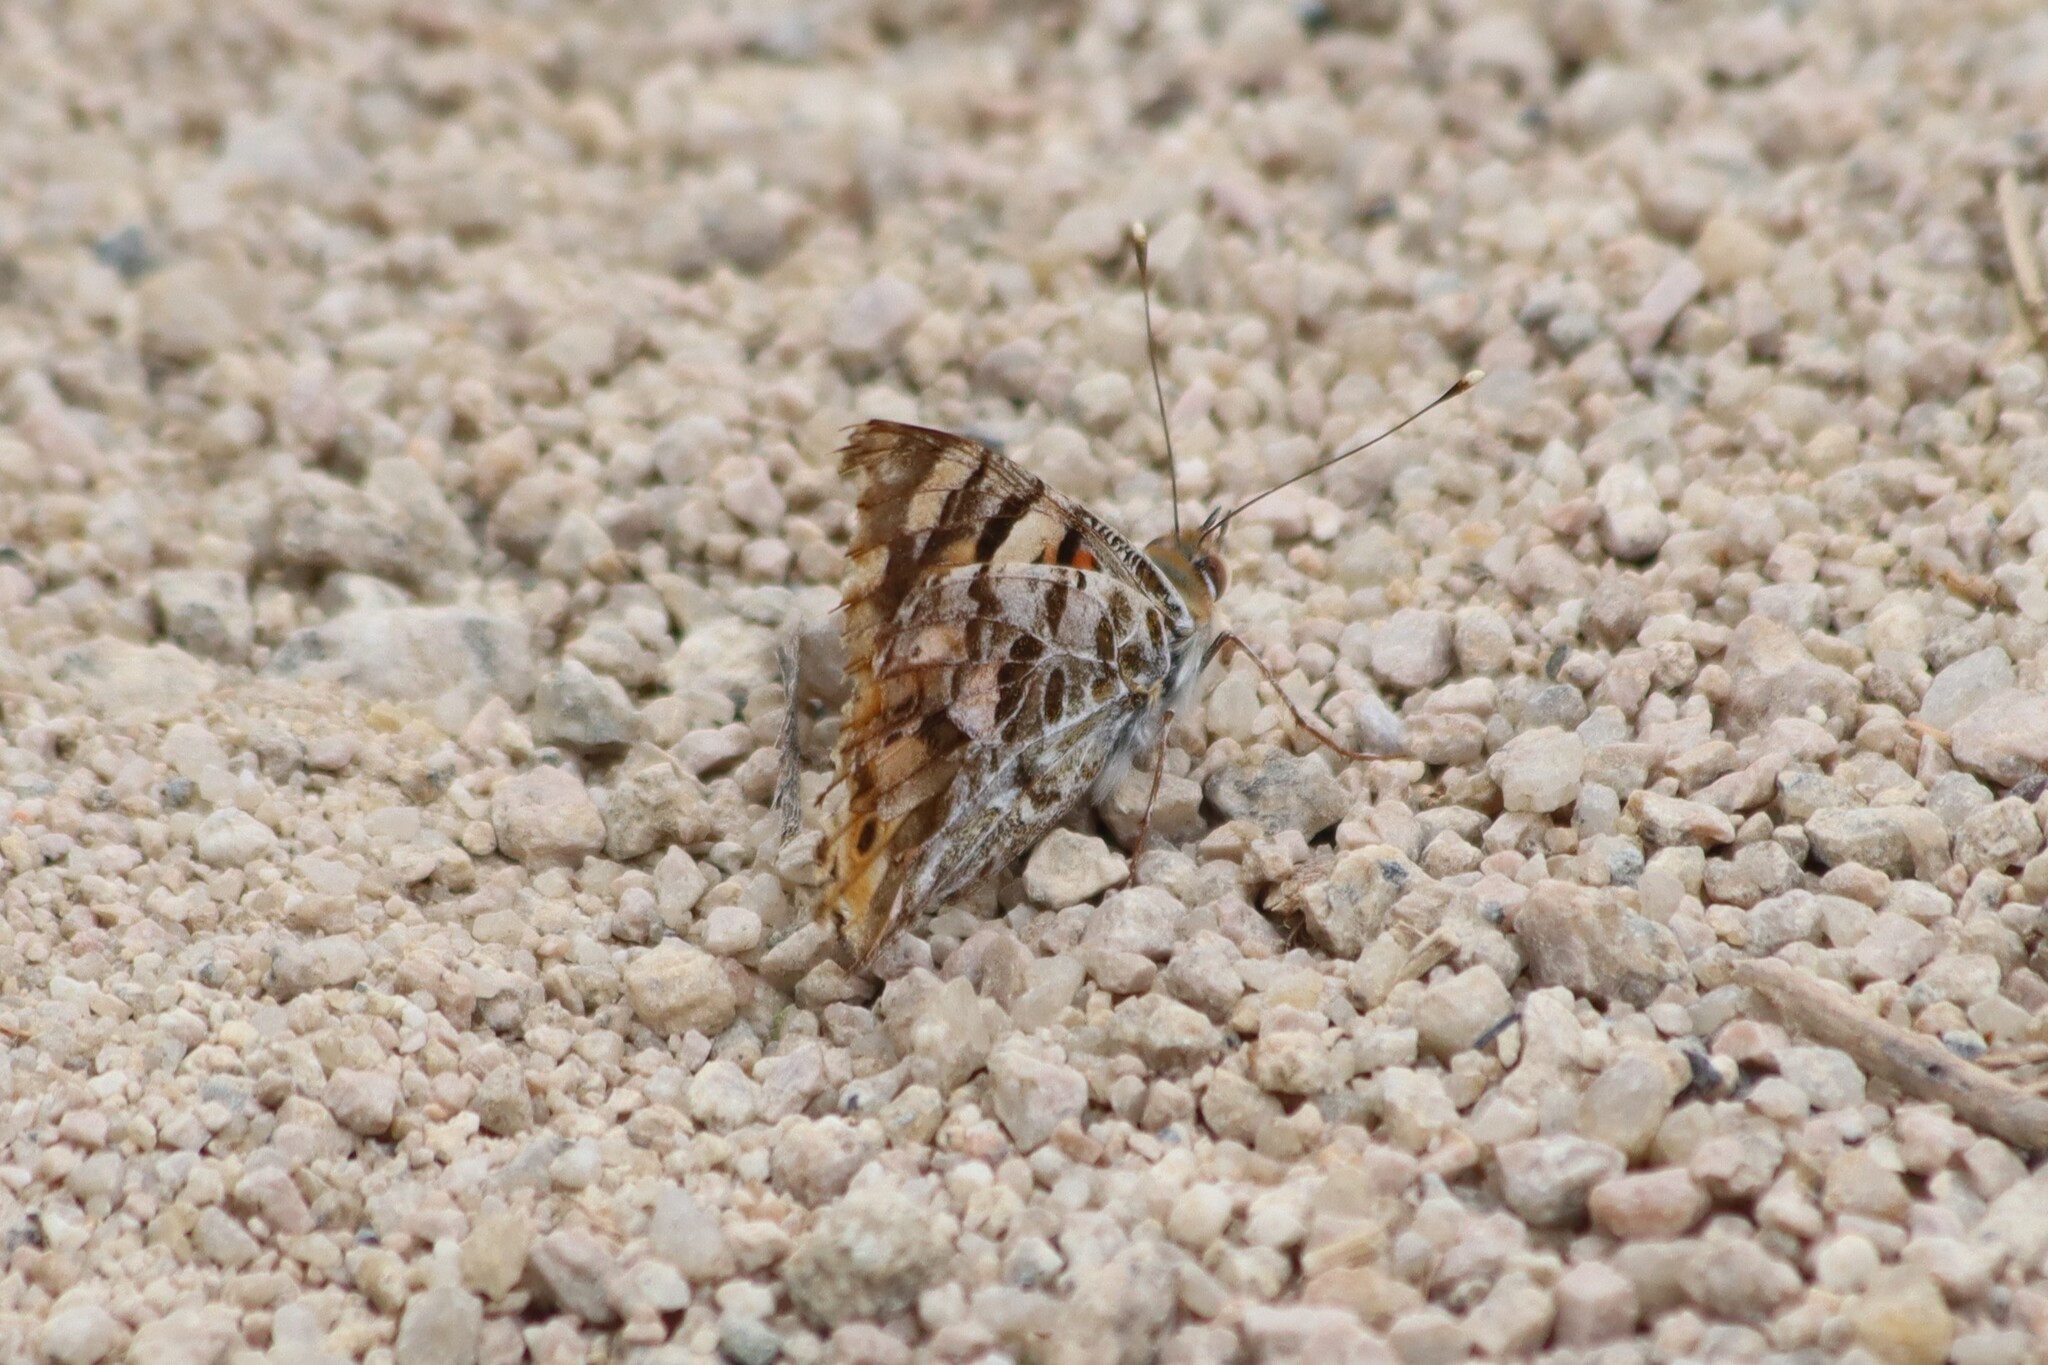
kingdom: Animalia
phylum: Arthropoda
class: Insecta
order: Lepidoptera
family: Nymphalidae
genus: Vanessa
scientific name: Vanessa cardui
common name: Painted lady
